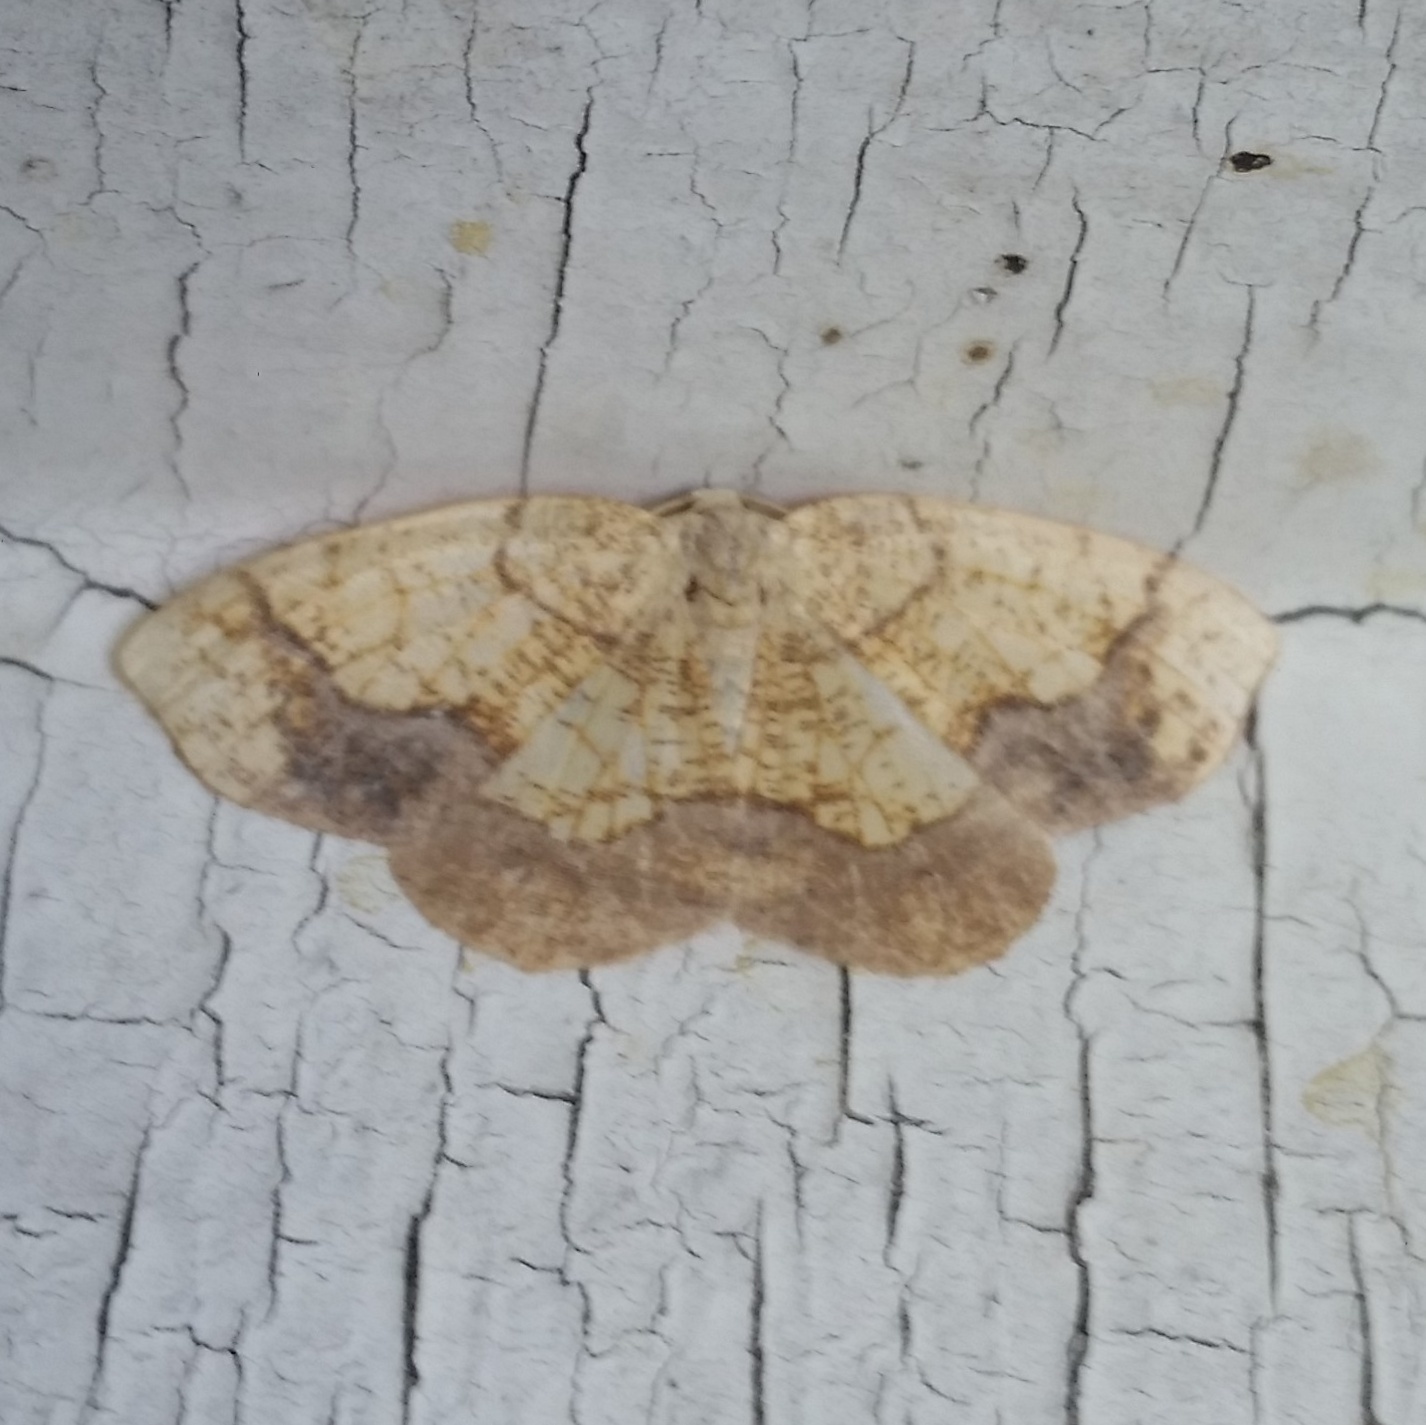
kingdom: Animalia
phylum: Arthropoda
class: Insecta
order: Lepidoptera
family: Geometridae
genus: Nematocampa
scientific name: Nematocampa resistaria
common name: Horned spanworm moth
